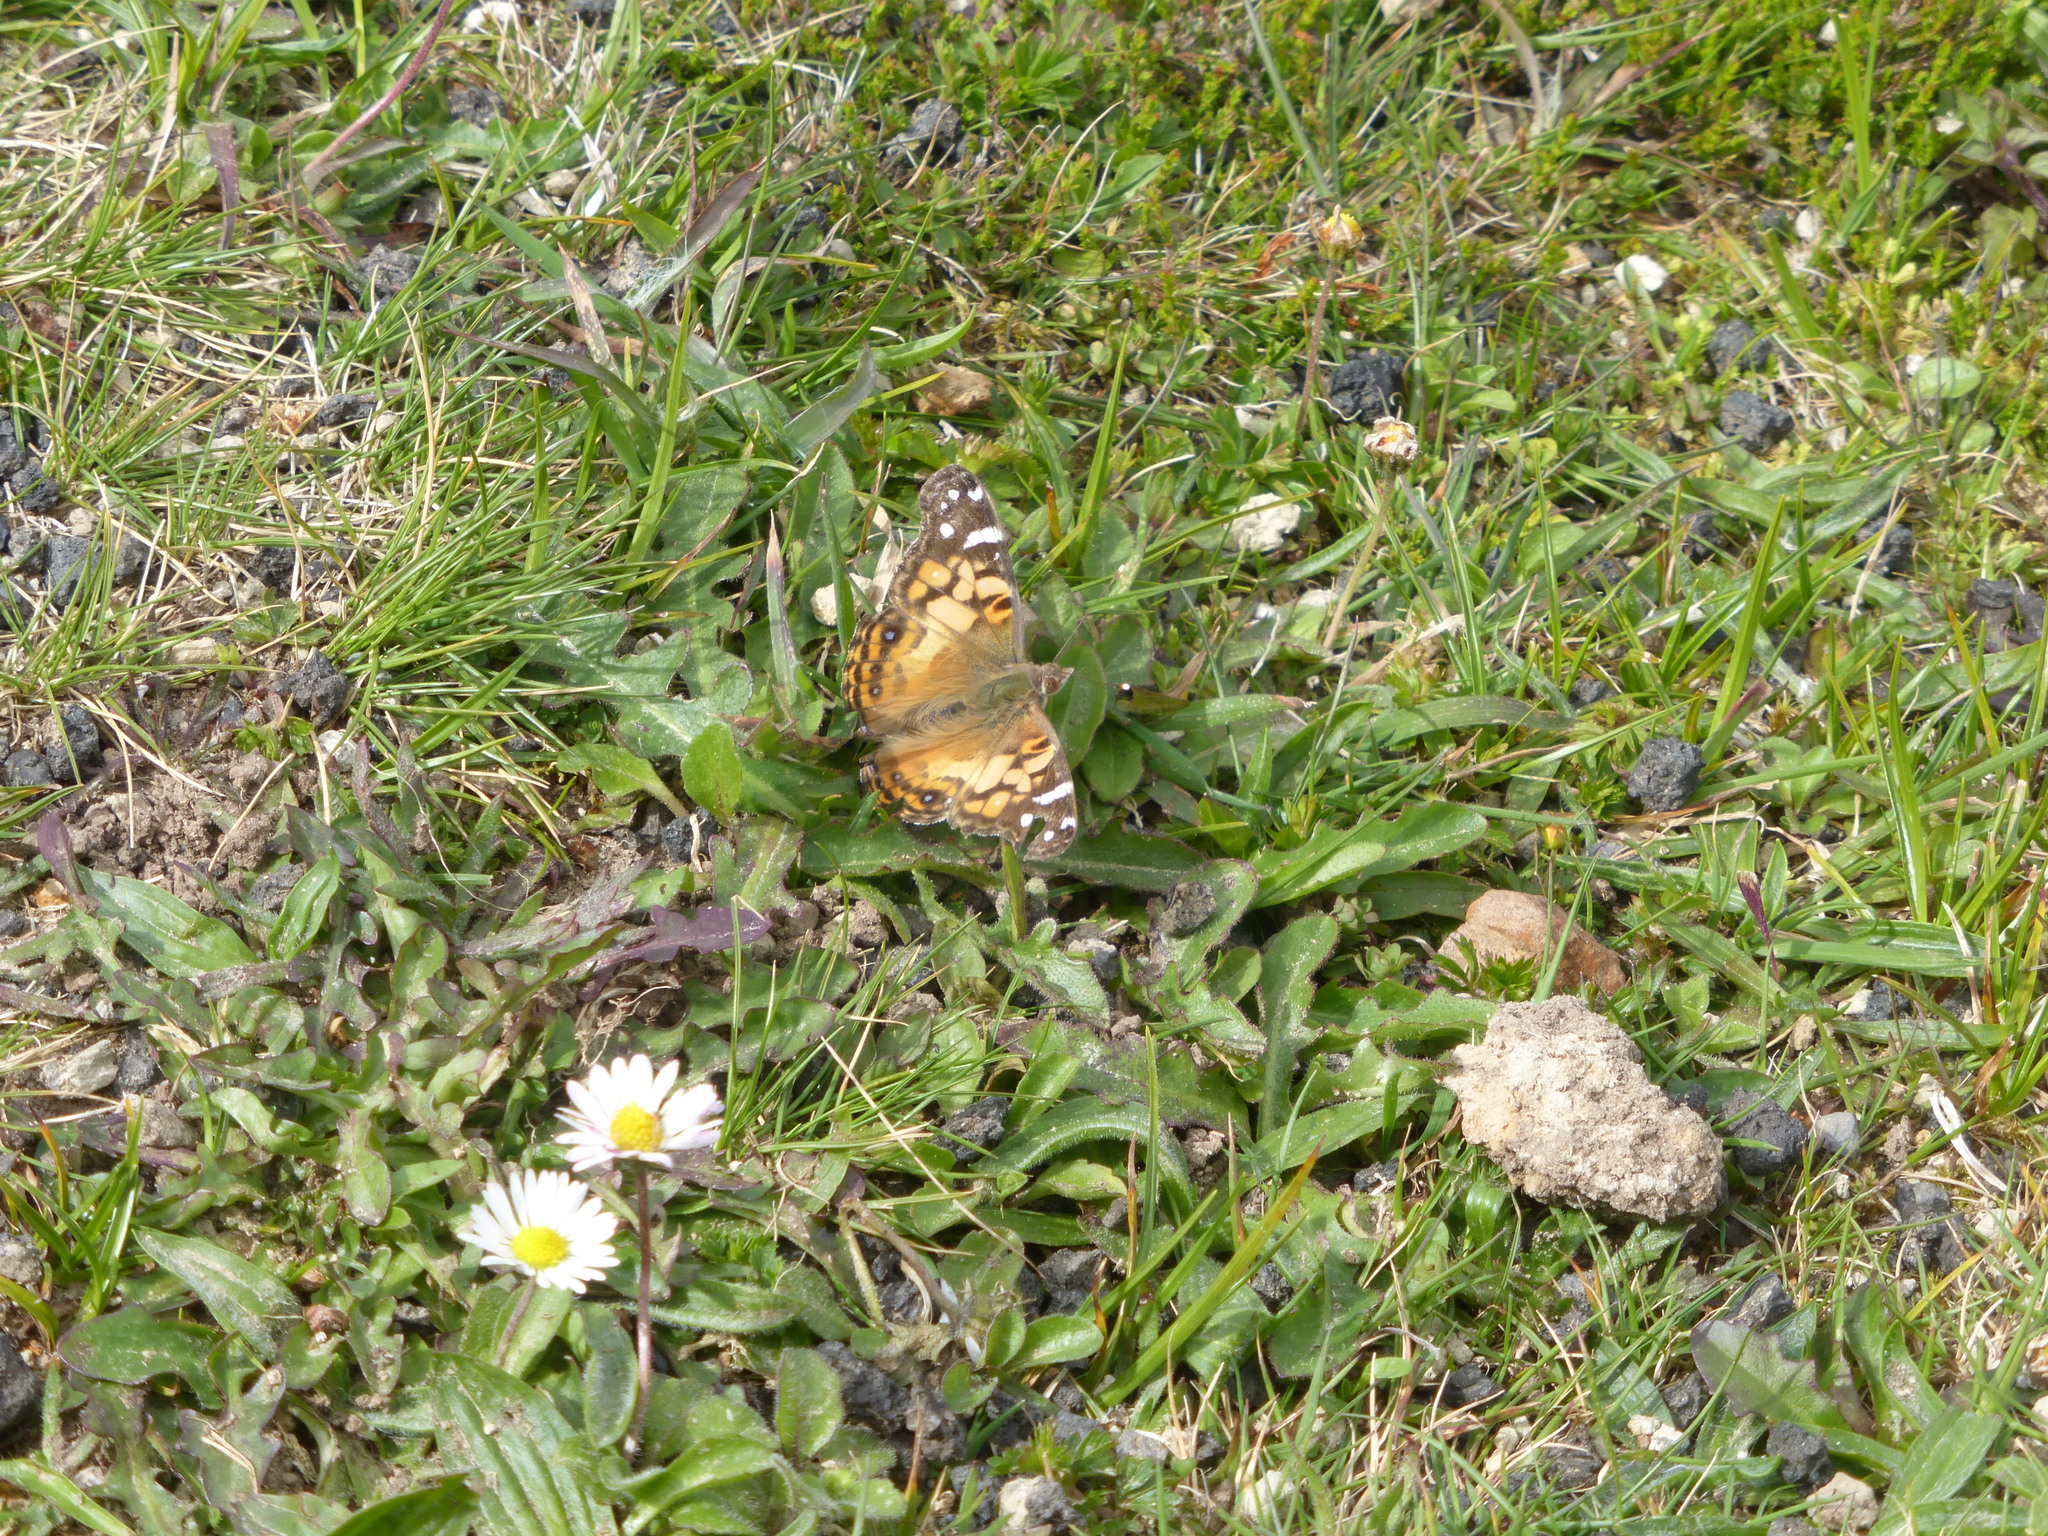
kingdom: Animalia
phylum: Arthropoda
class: Insecta
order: Lepidoptera
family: Nymphalidae
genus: Vanessa
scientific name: Vanessa virginiensis
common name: American lady
